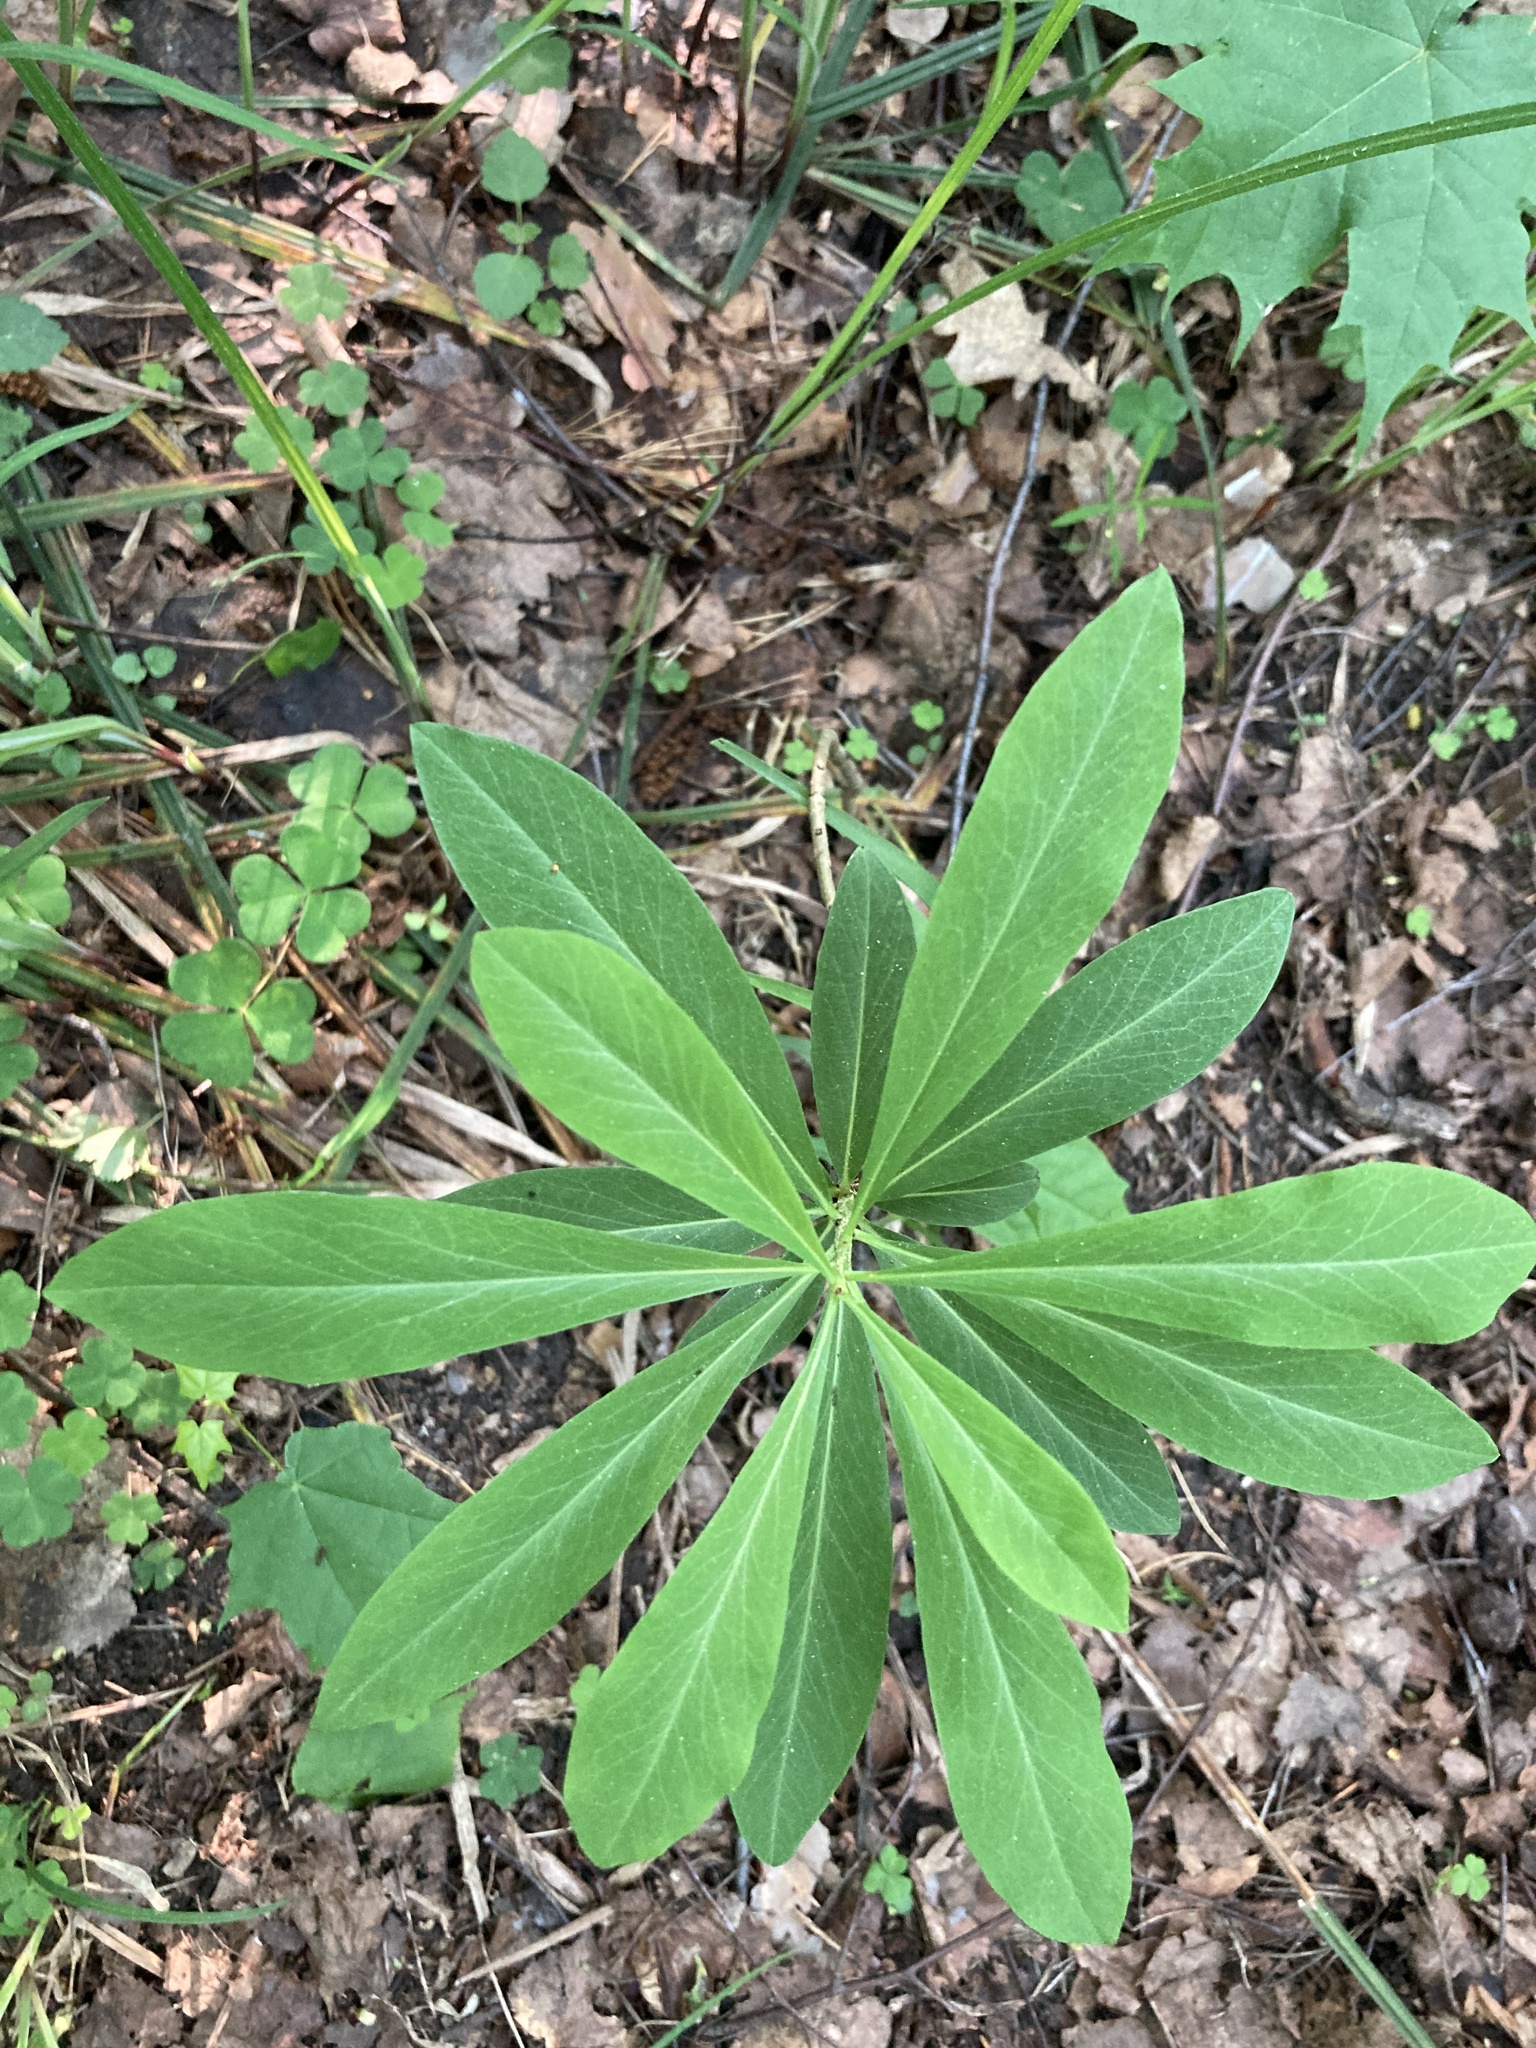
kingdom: Plantae
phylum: Tracheophyta
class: Magnoliopsida
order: Malvales
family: Thymelaeaceae
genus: Daphne
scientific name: Daphne mezereum
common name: Mezereon
